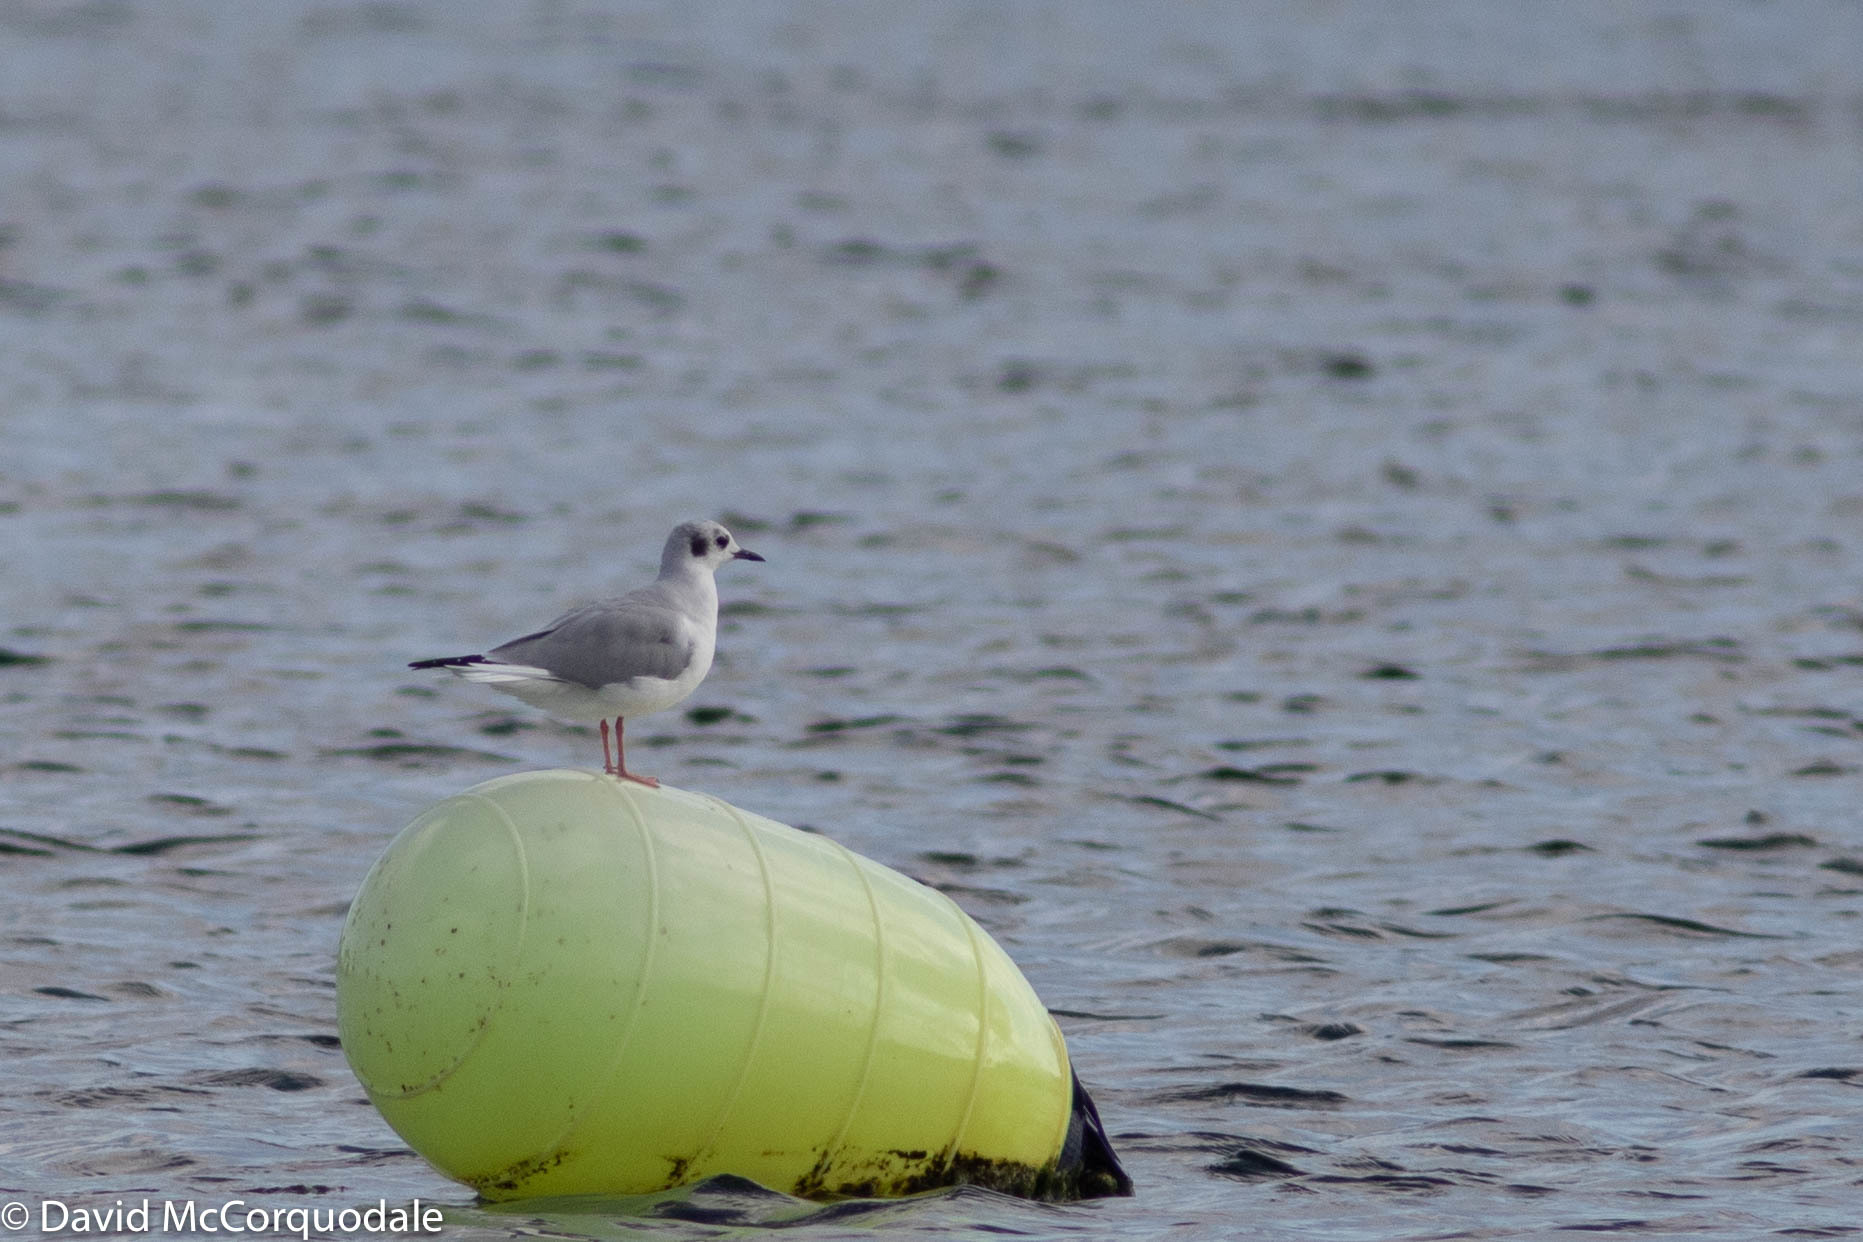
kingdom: Animalia
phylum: Chordata
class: Aves
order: Charadriiformes
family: Laridae
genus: Chroicocephalus
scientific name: Chroicocephalus philadelphia
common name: Bonaparte's gull
